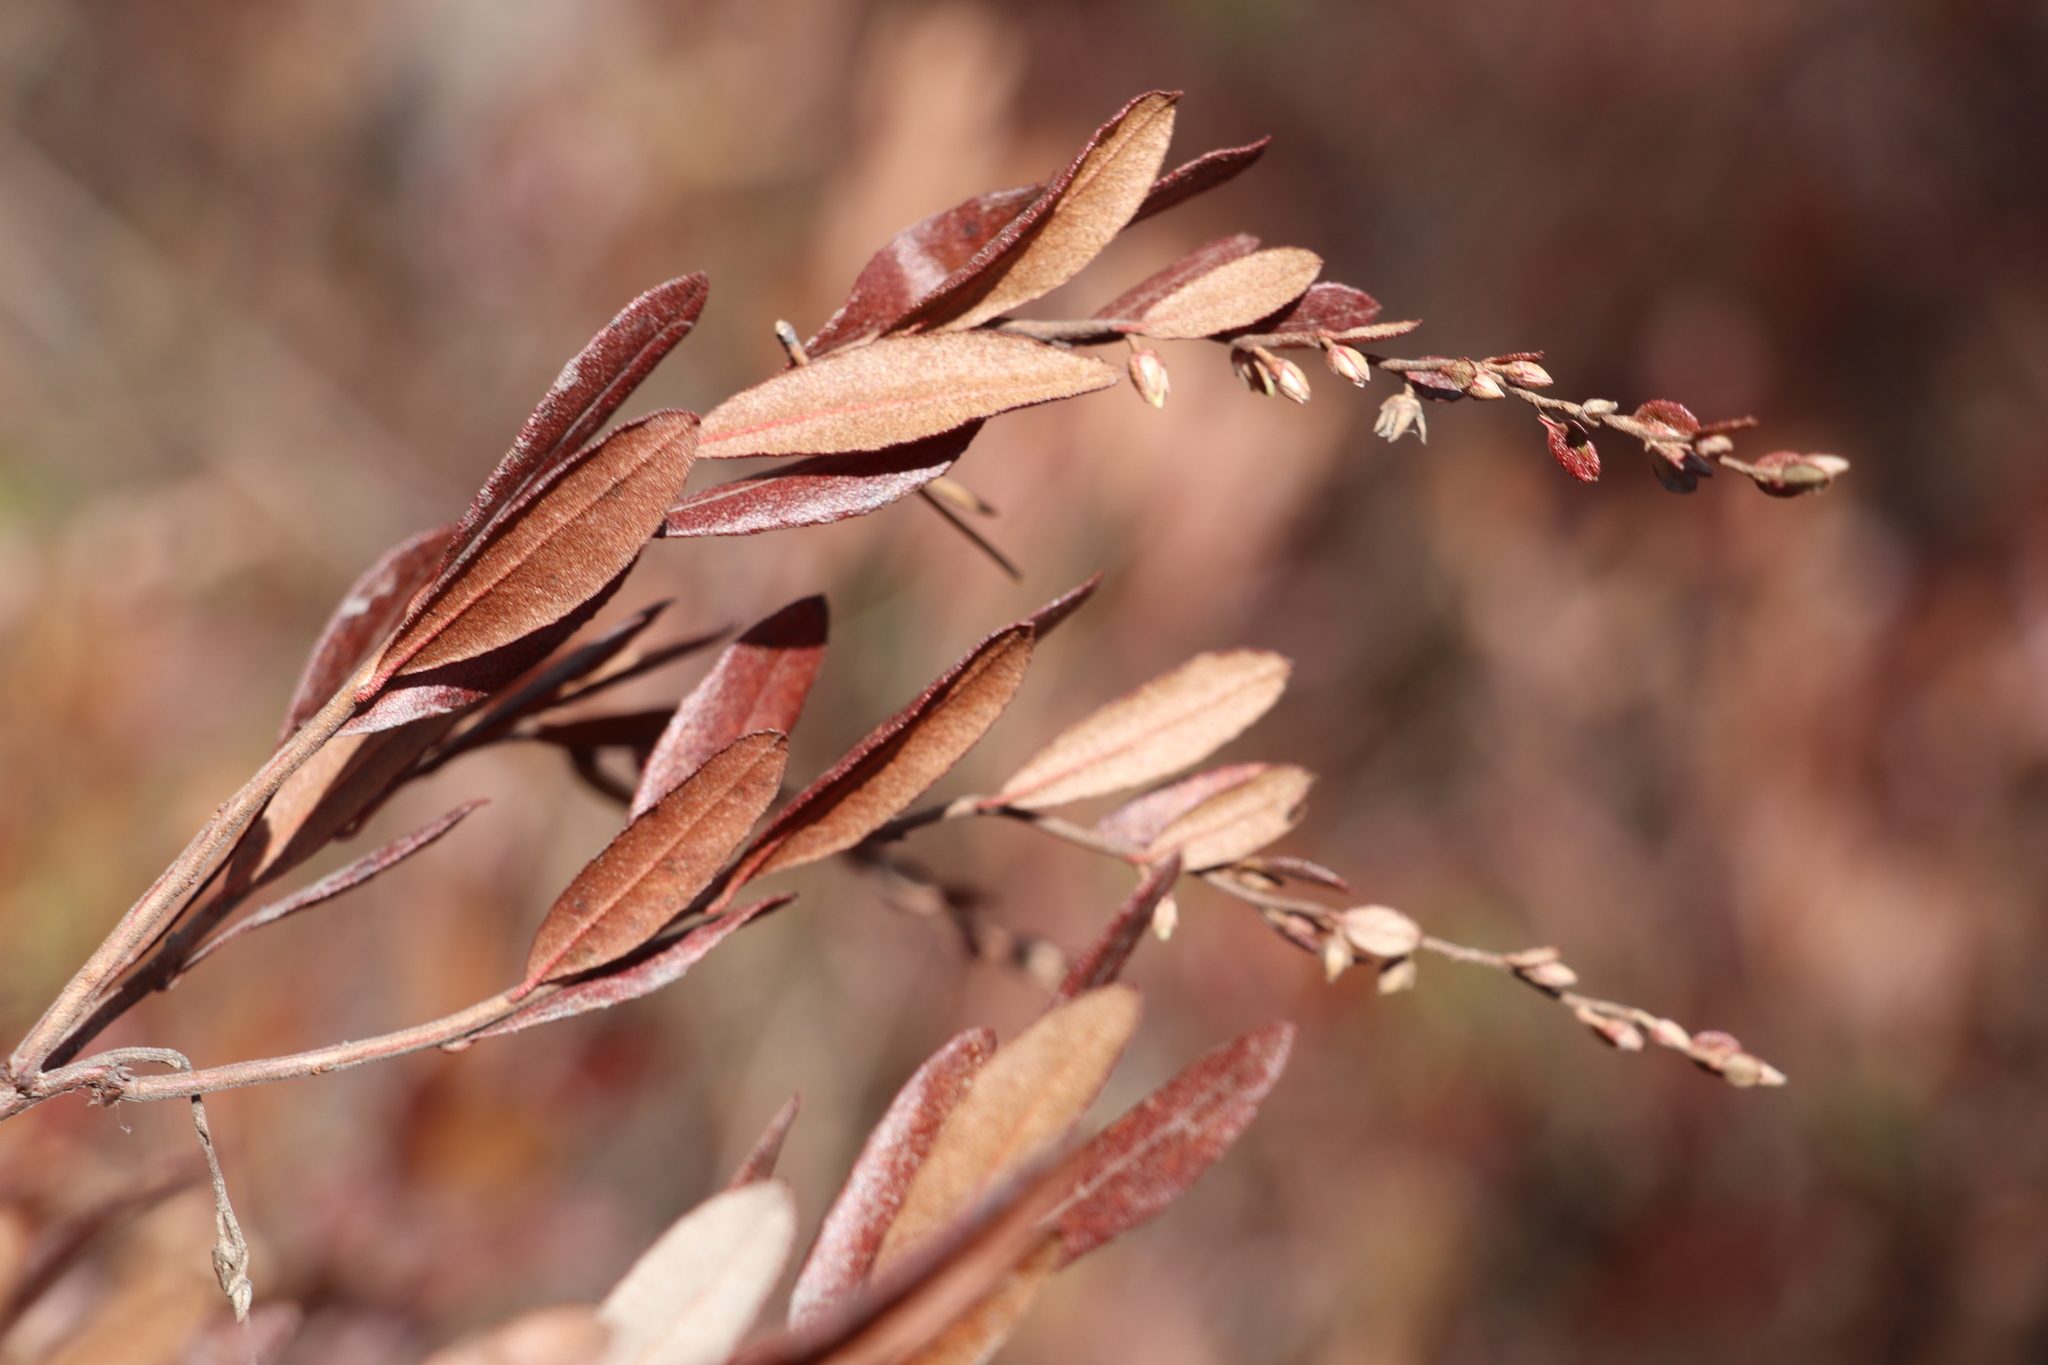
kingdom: Plantae
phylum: Tracheophyta
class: Magnoliopsida
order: Ericales
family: Ericaceae
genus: Chamaedaphne
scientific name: Chamaedaphne calyculata
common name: Leatherleaf
